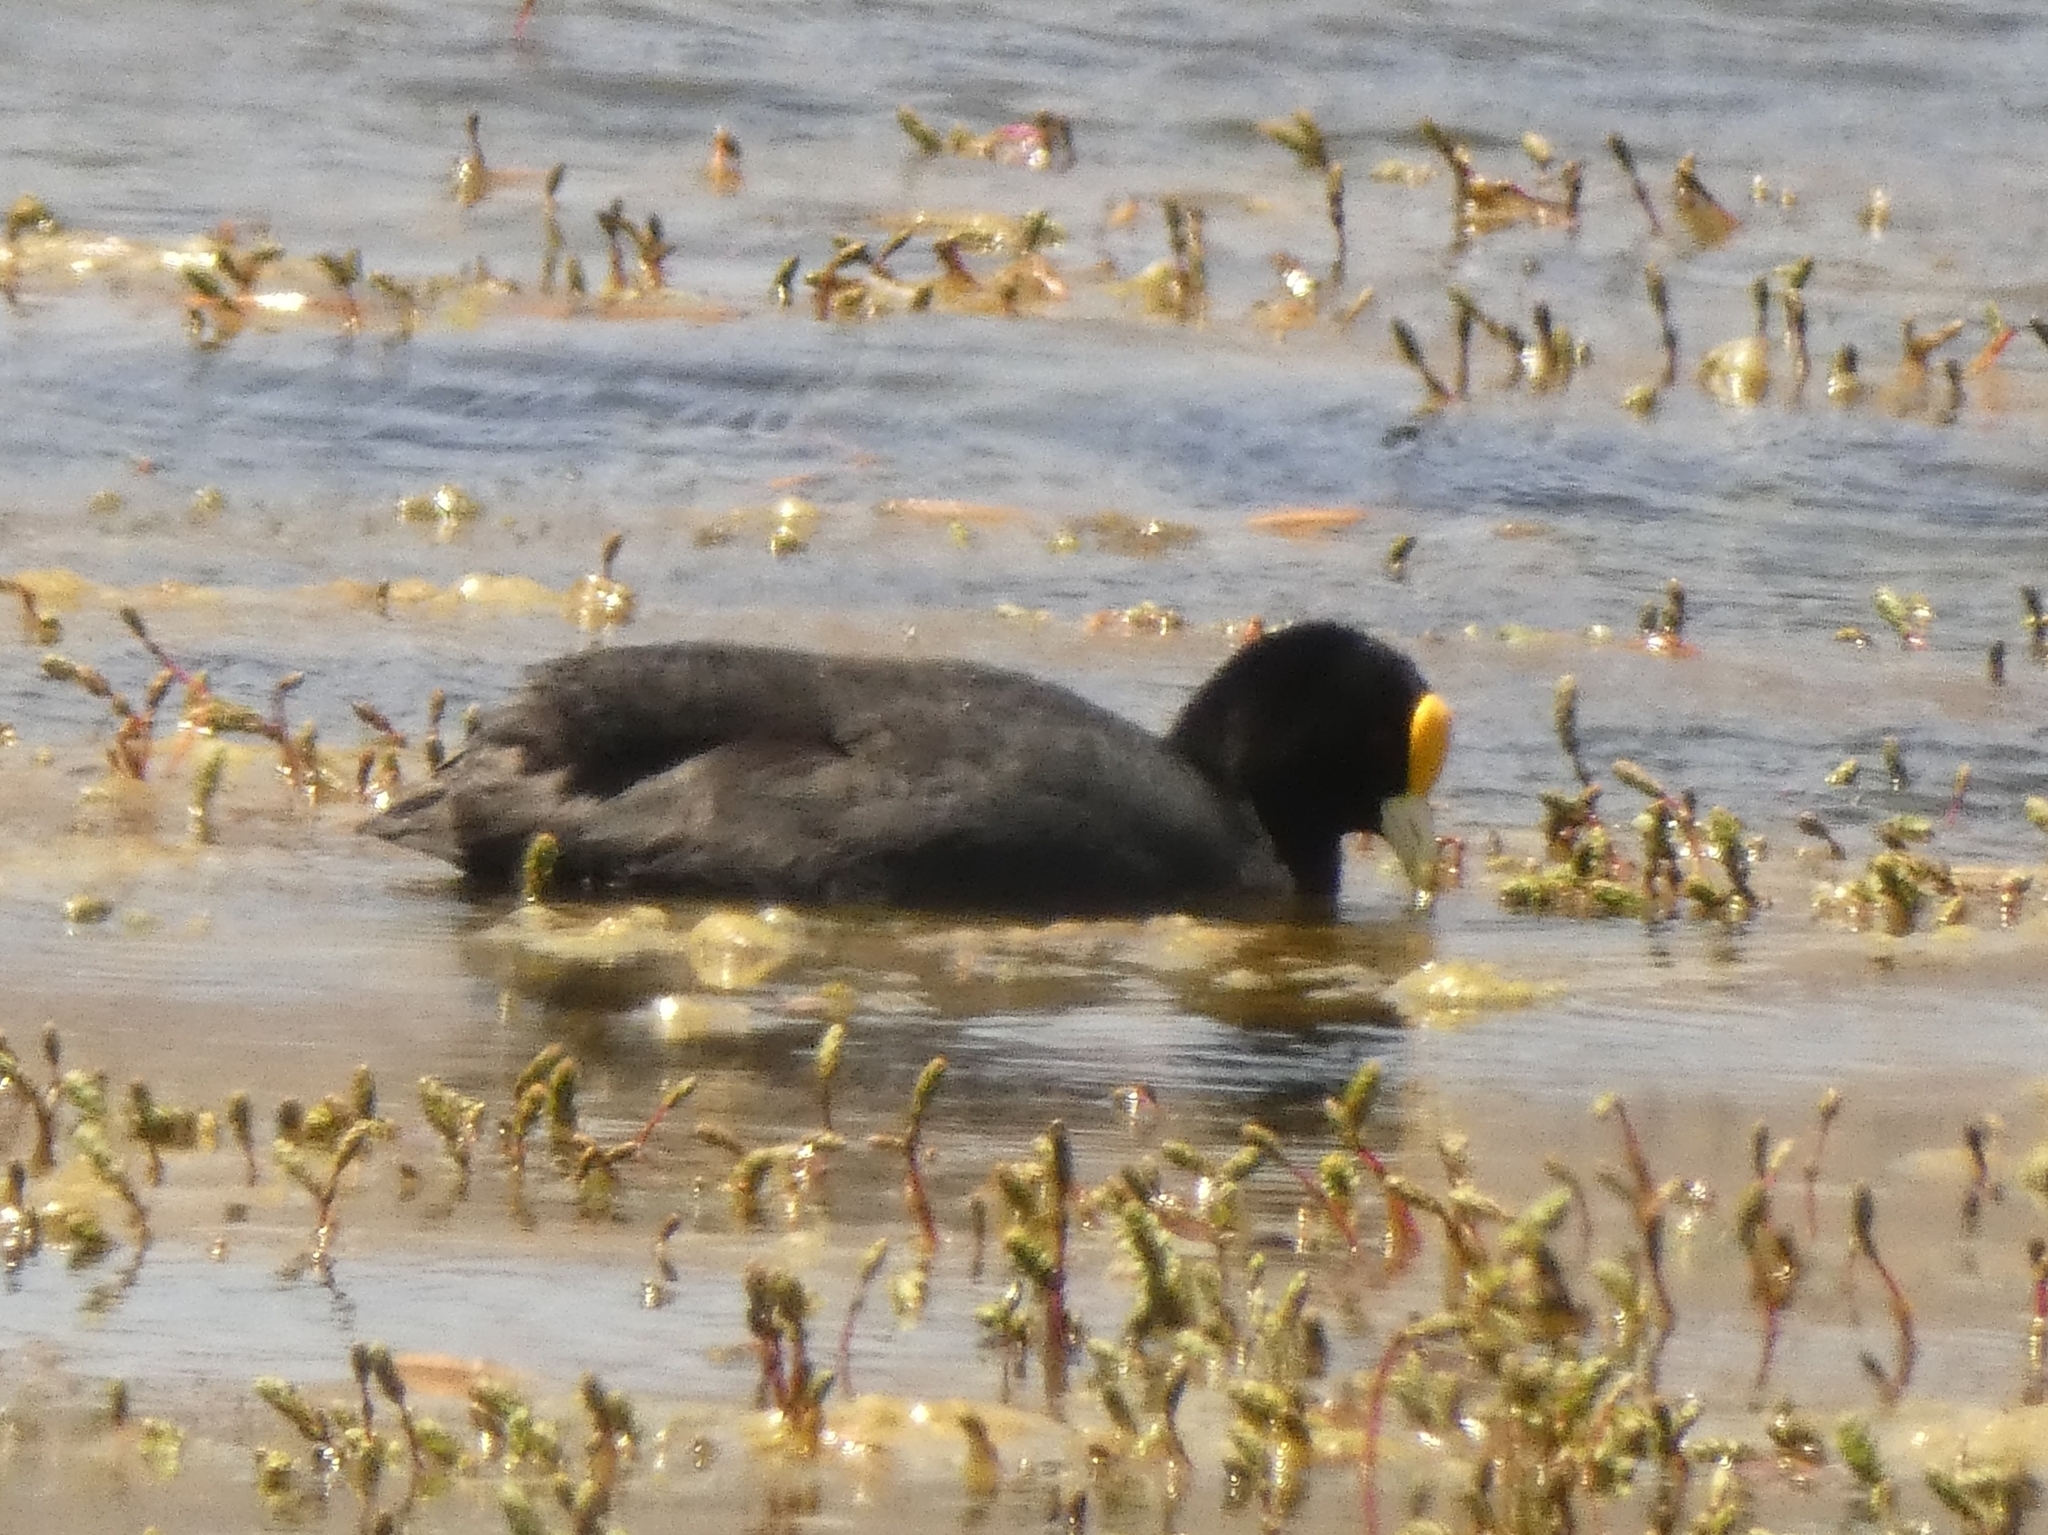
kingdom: Animalia
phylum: Chordata
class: Aves
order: Gruiformes
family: Rallidae
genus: Fulica
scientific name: Fulica leucoptera
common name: White-winged coot
